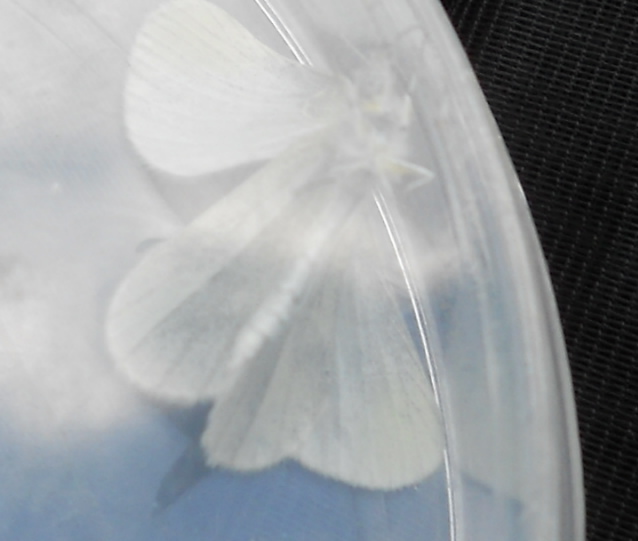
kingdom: Animalia
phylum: Arthropoda
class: Insecta
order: Lepidoptera
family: Pieridae
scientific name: Pieridae
